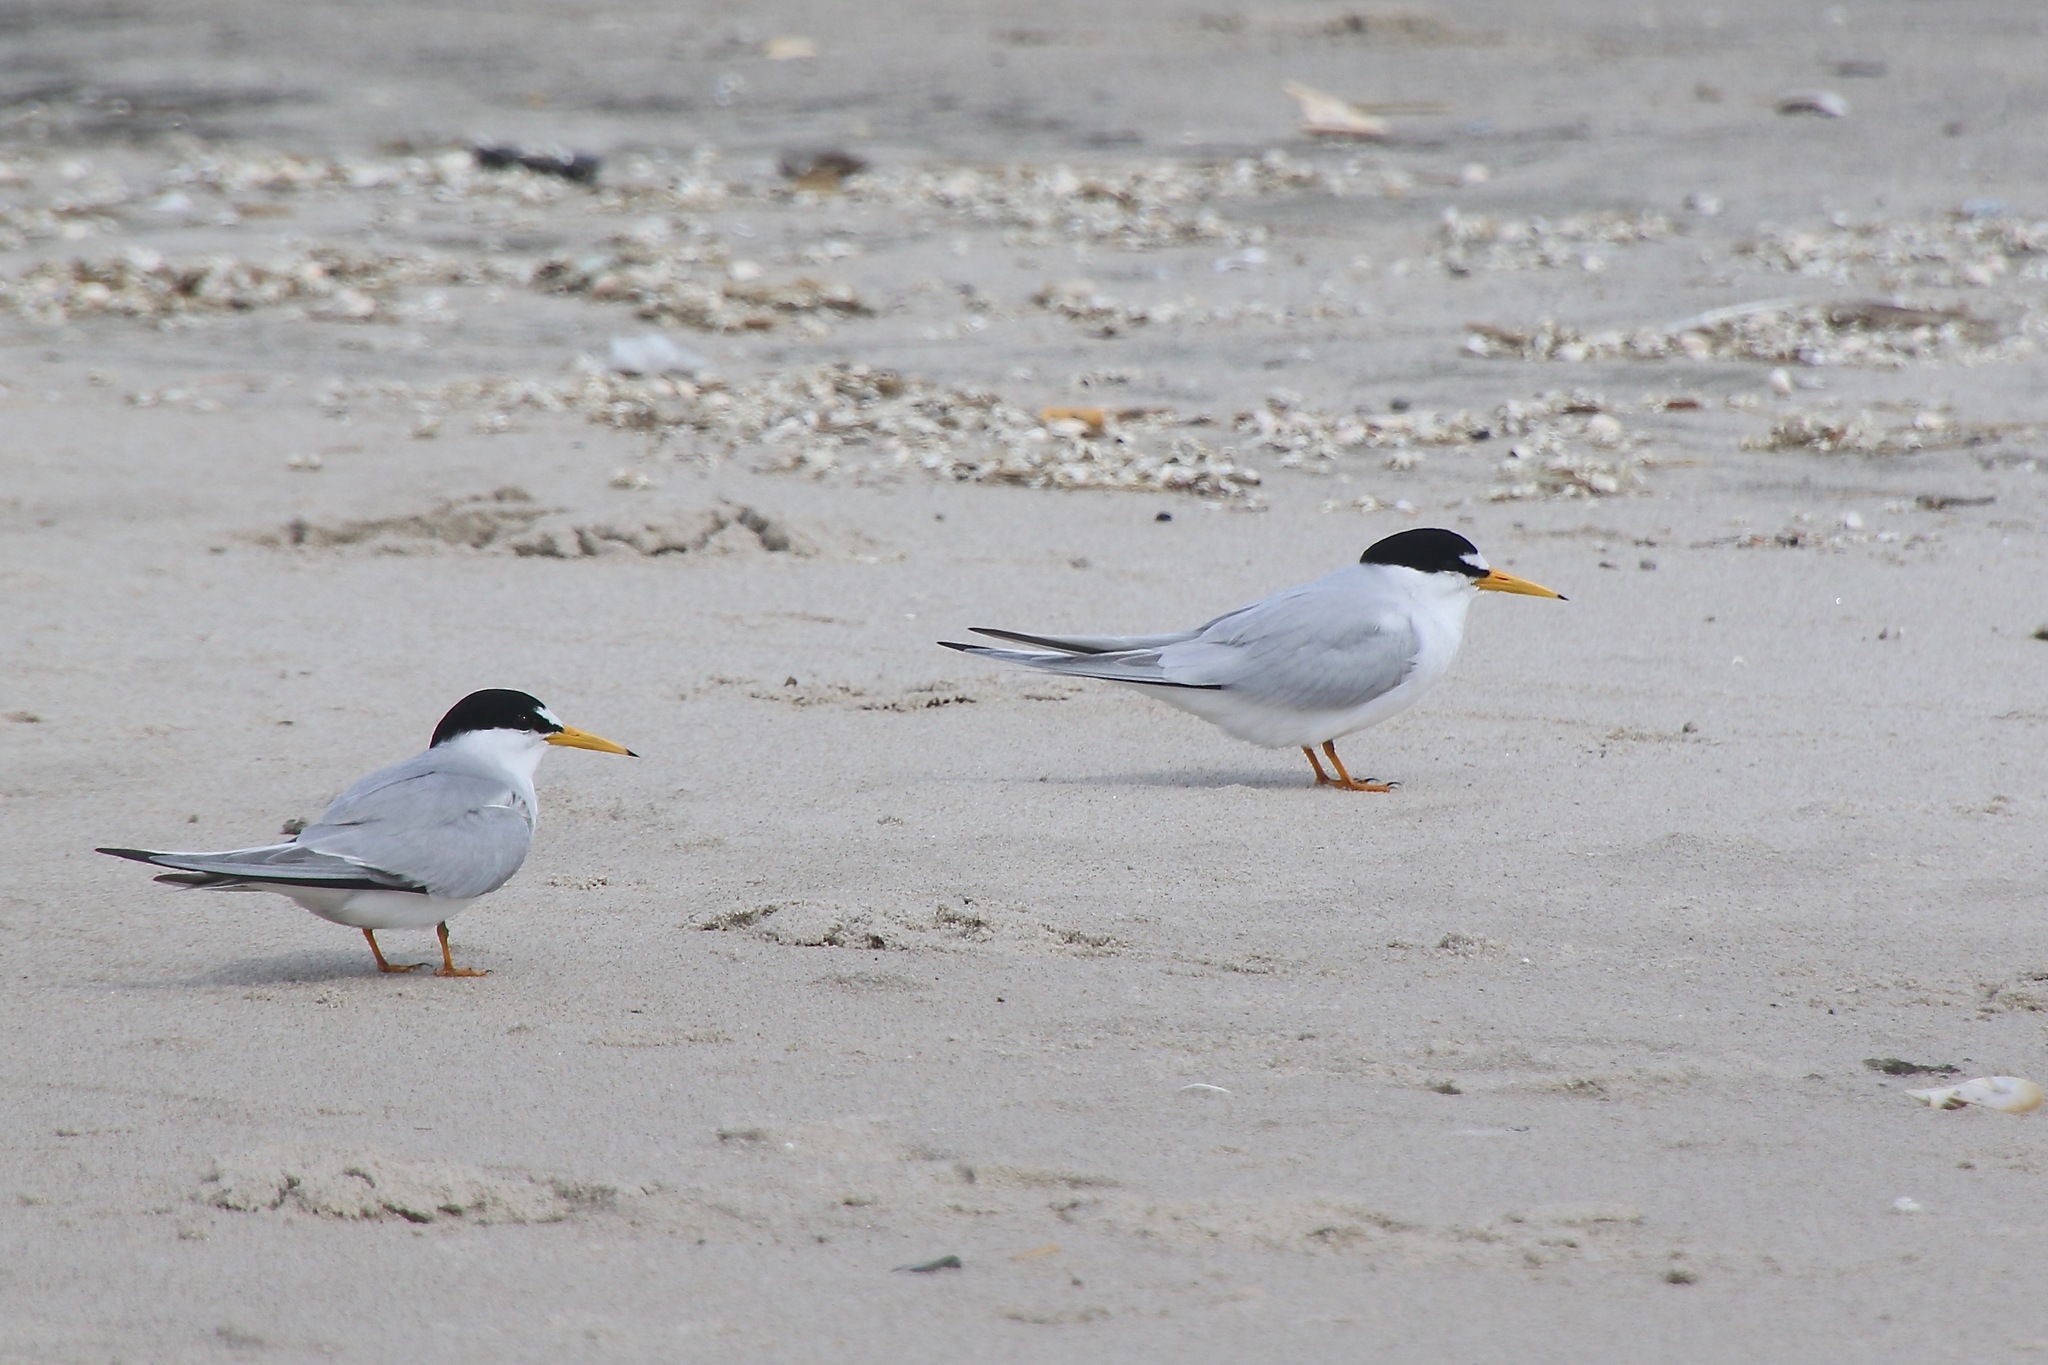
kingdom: Animalia
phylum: Chordata
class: Aves
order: Charadriiformes
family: Laridae
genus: Sternula
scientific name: Sternula antillarum
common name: Least tern
